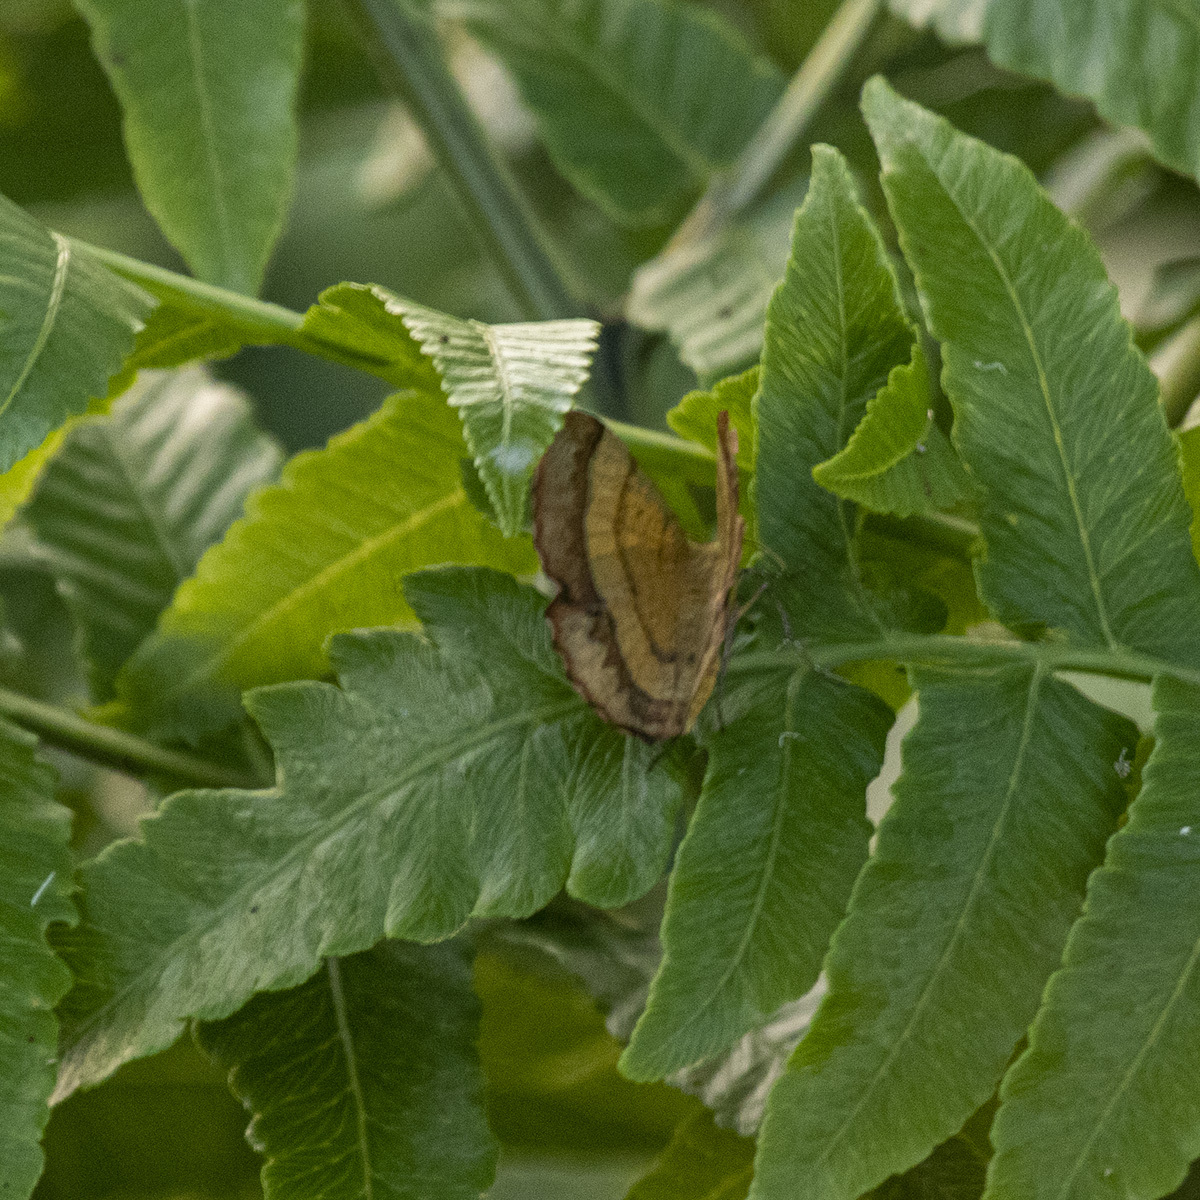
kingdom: Animalia
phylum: Arthropoda
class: Insecta
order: Lepidoptera
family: Geometridae
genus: Hyperythra
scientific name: Hyperythra lutea
